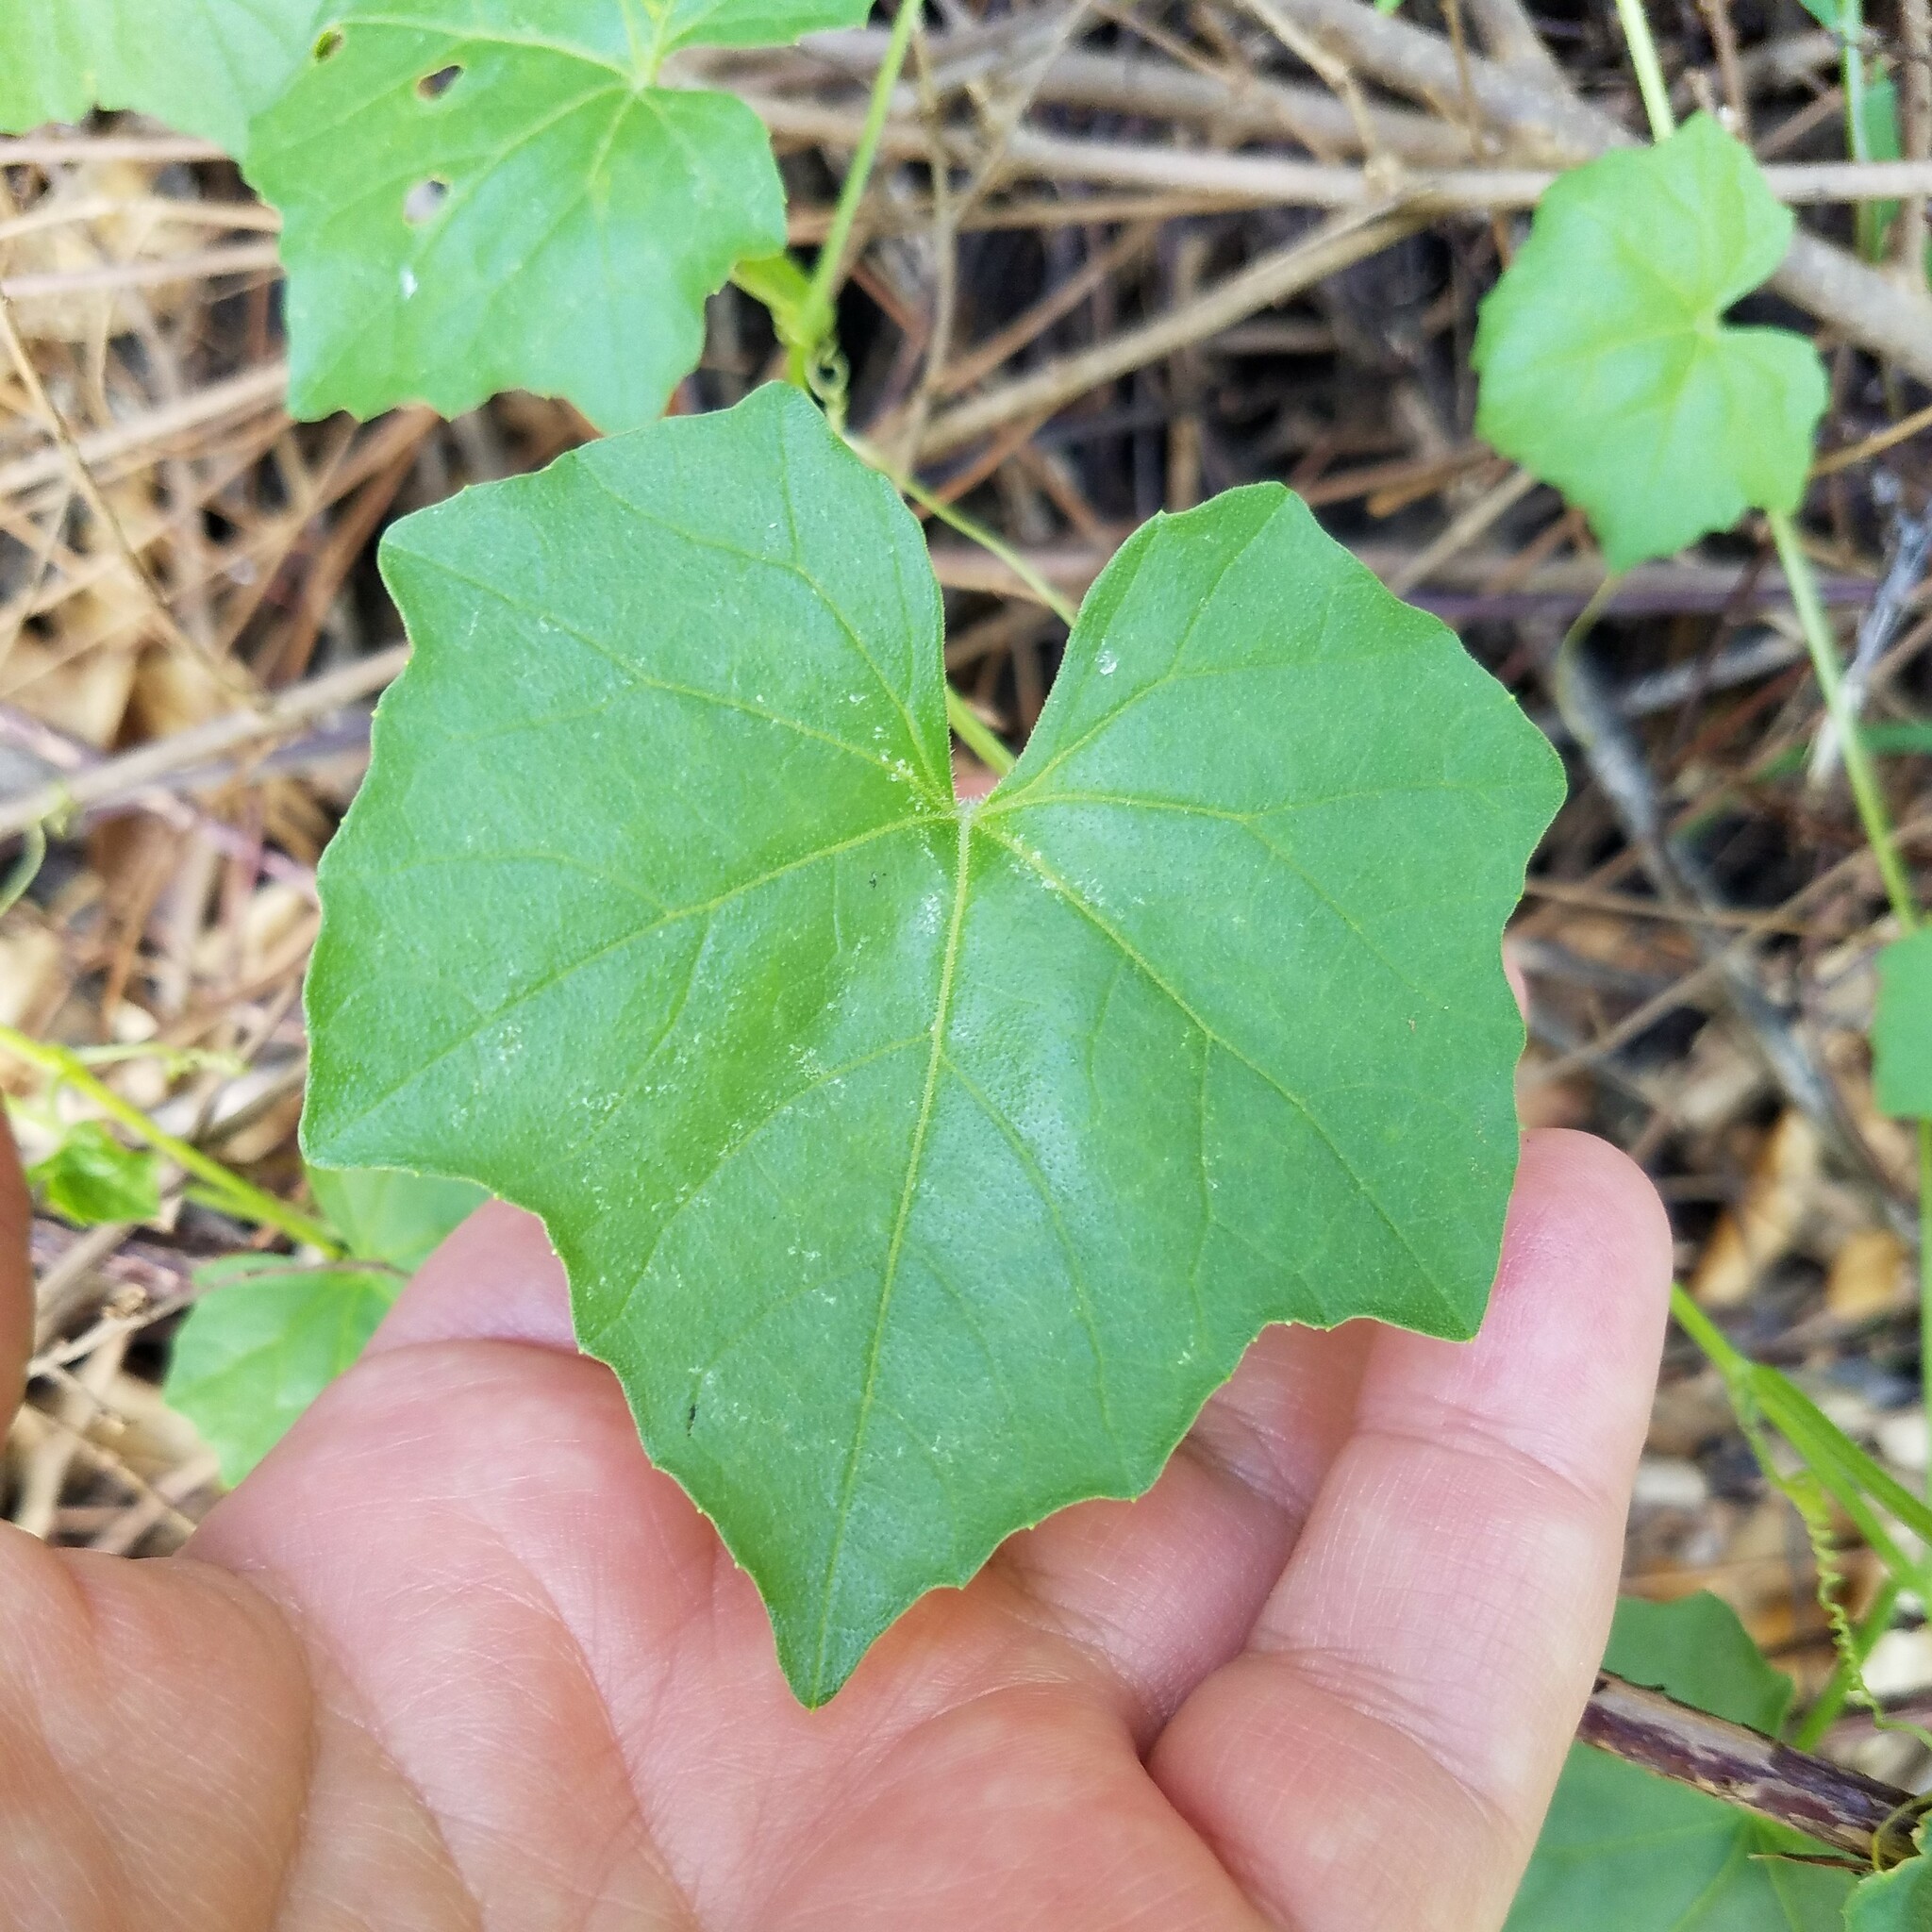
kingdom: Plantae
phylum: Tracheophyta
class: Magnoliopsida
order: Cucurbitales
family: Cucurbitaceae
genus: Melothria
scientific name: Melothria pendula
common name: Creeping-cucumber
